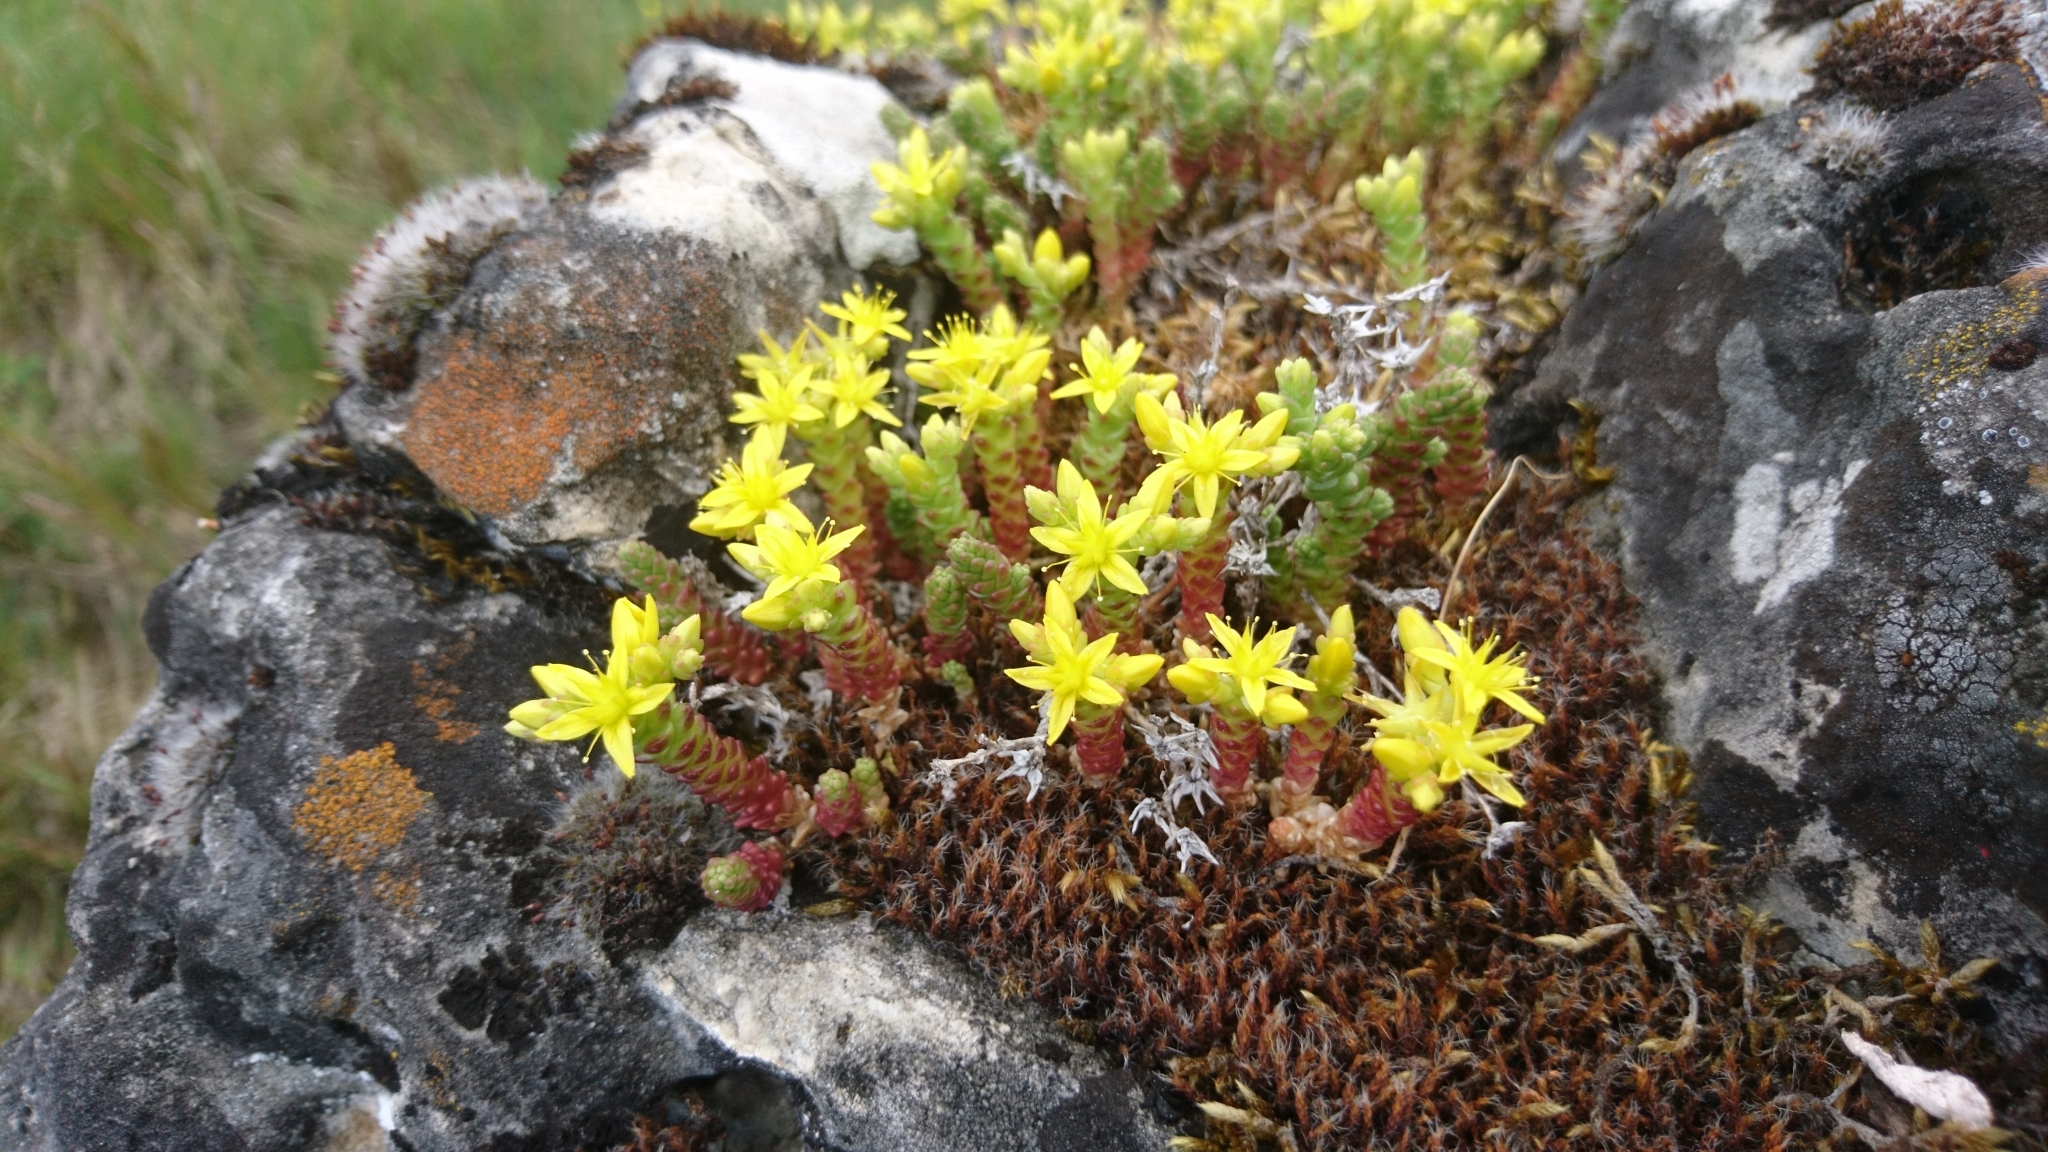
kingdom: Plantae
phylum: Tracheophyta
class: Magnoliopsida
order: Saxifragales
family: Crassulaceae
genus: Sedum
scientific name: Sedum acre
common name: Biting stonecrop
